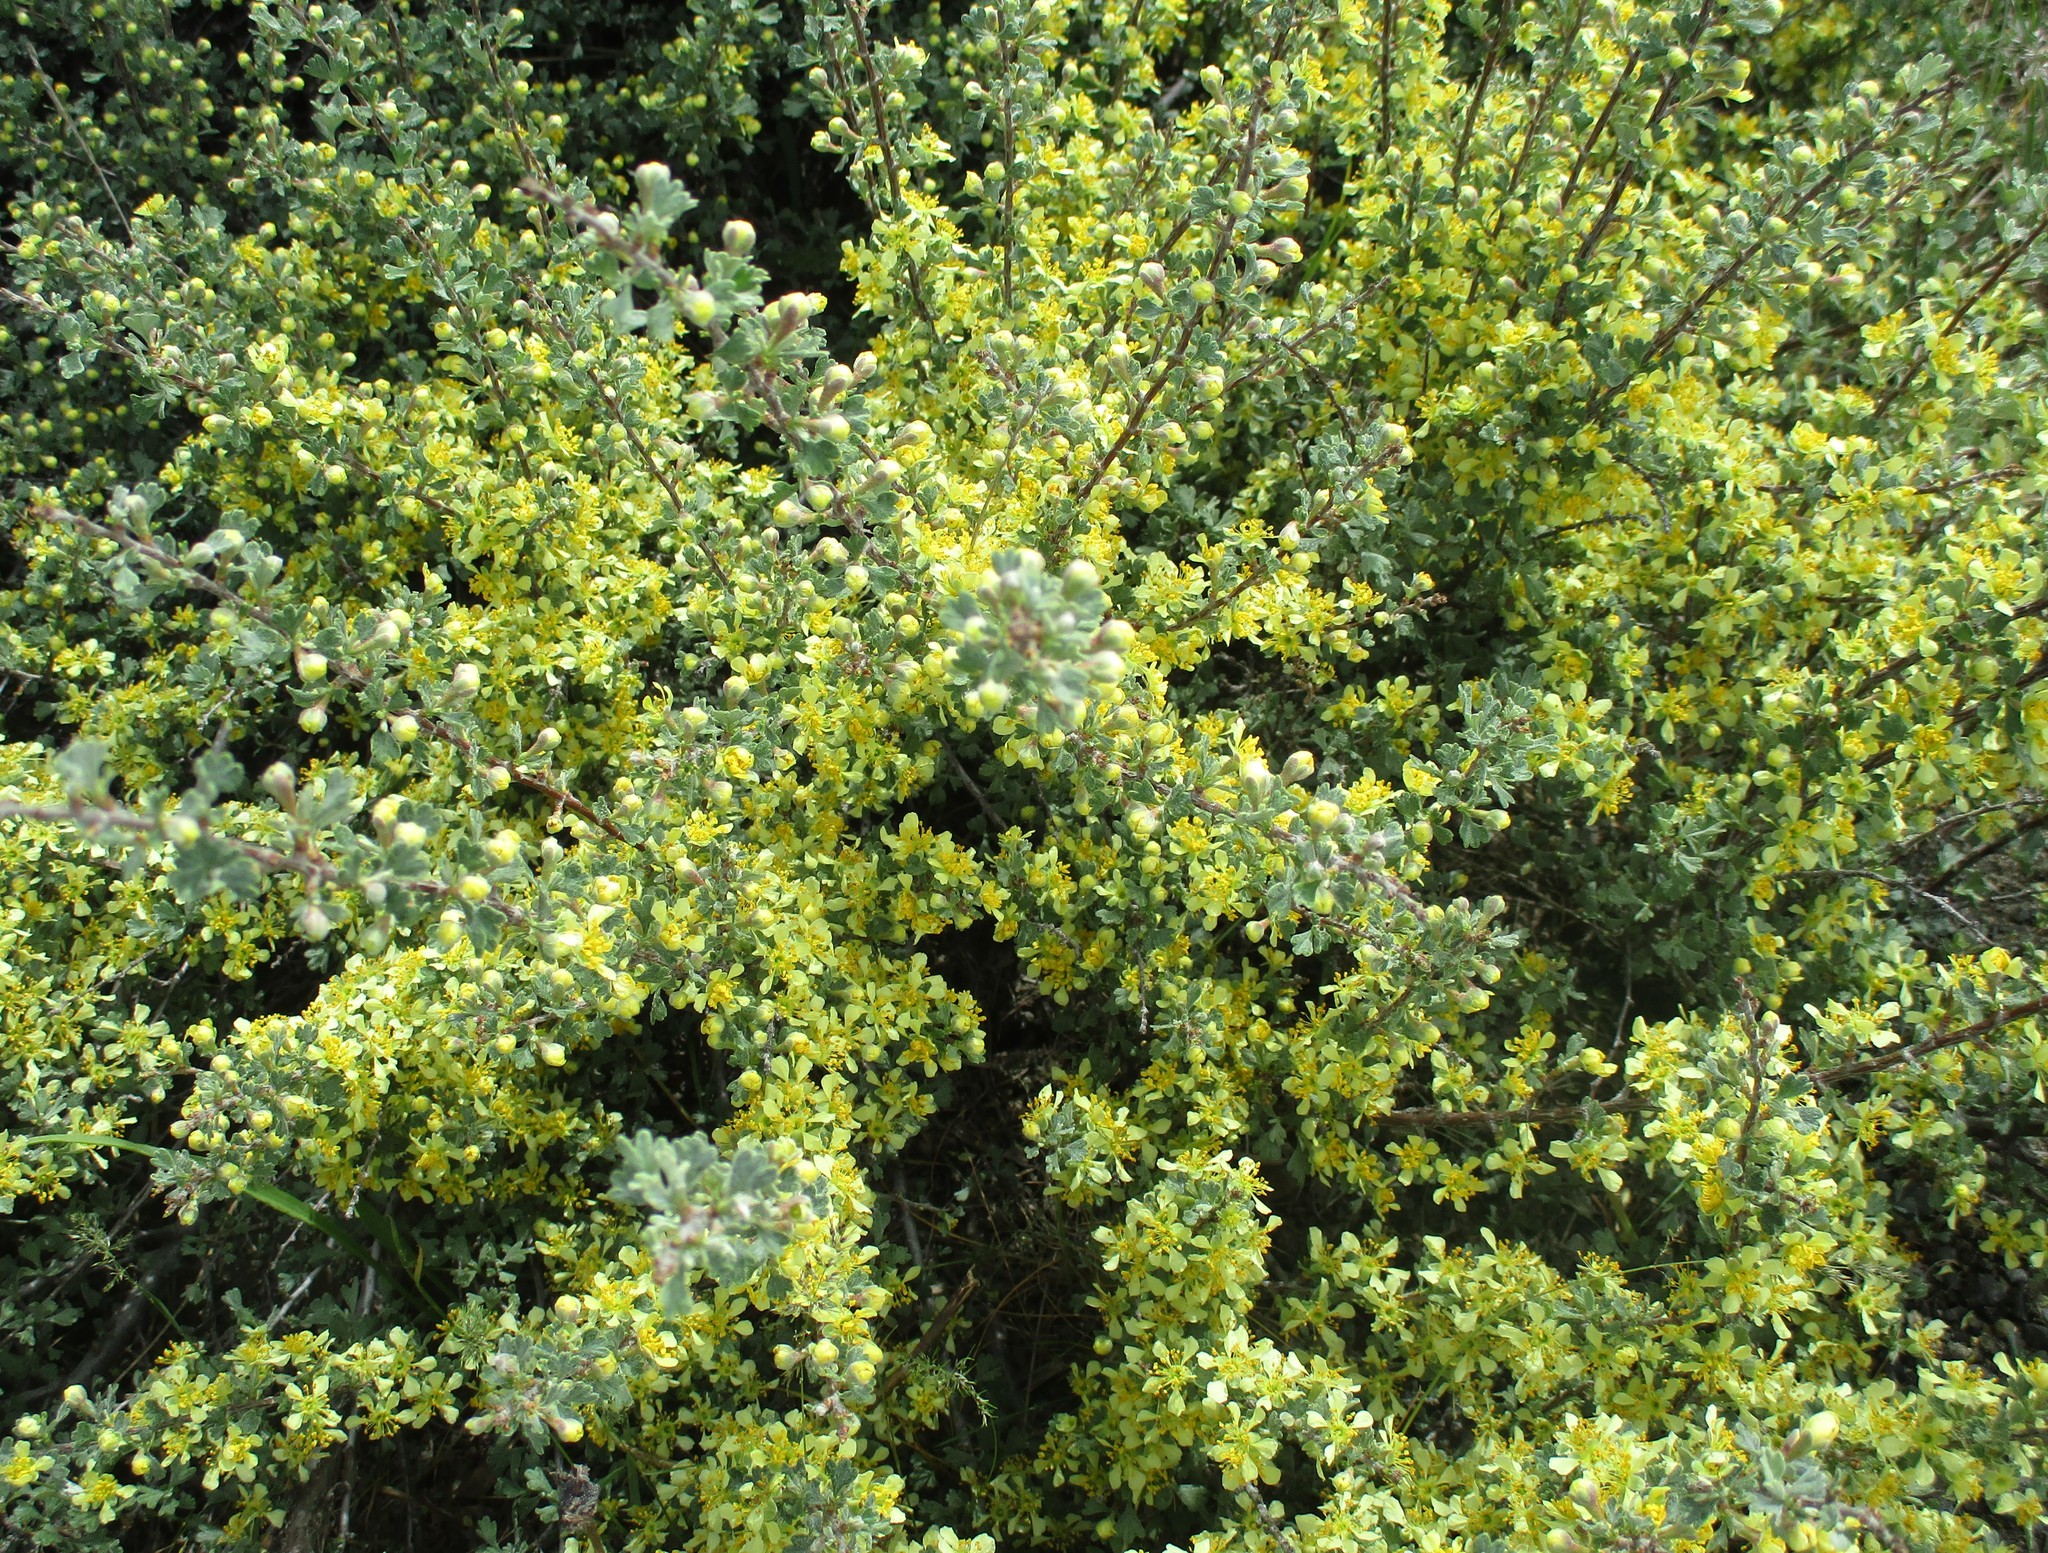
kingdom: Plantae
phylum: Tracheophyta
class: Magnoliopsida
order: Rosales
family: Rosaceae
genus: Purshia
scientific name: Purshia tridentata
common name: Antelope bitterbrush
